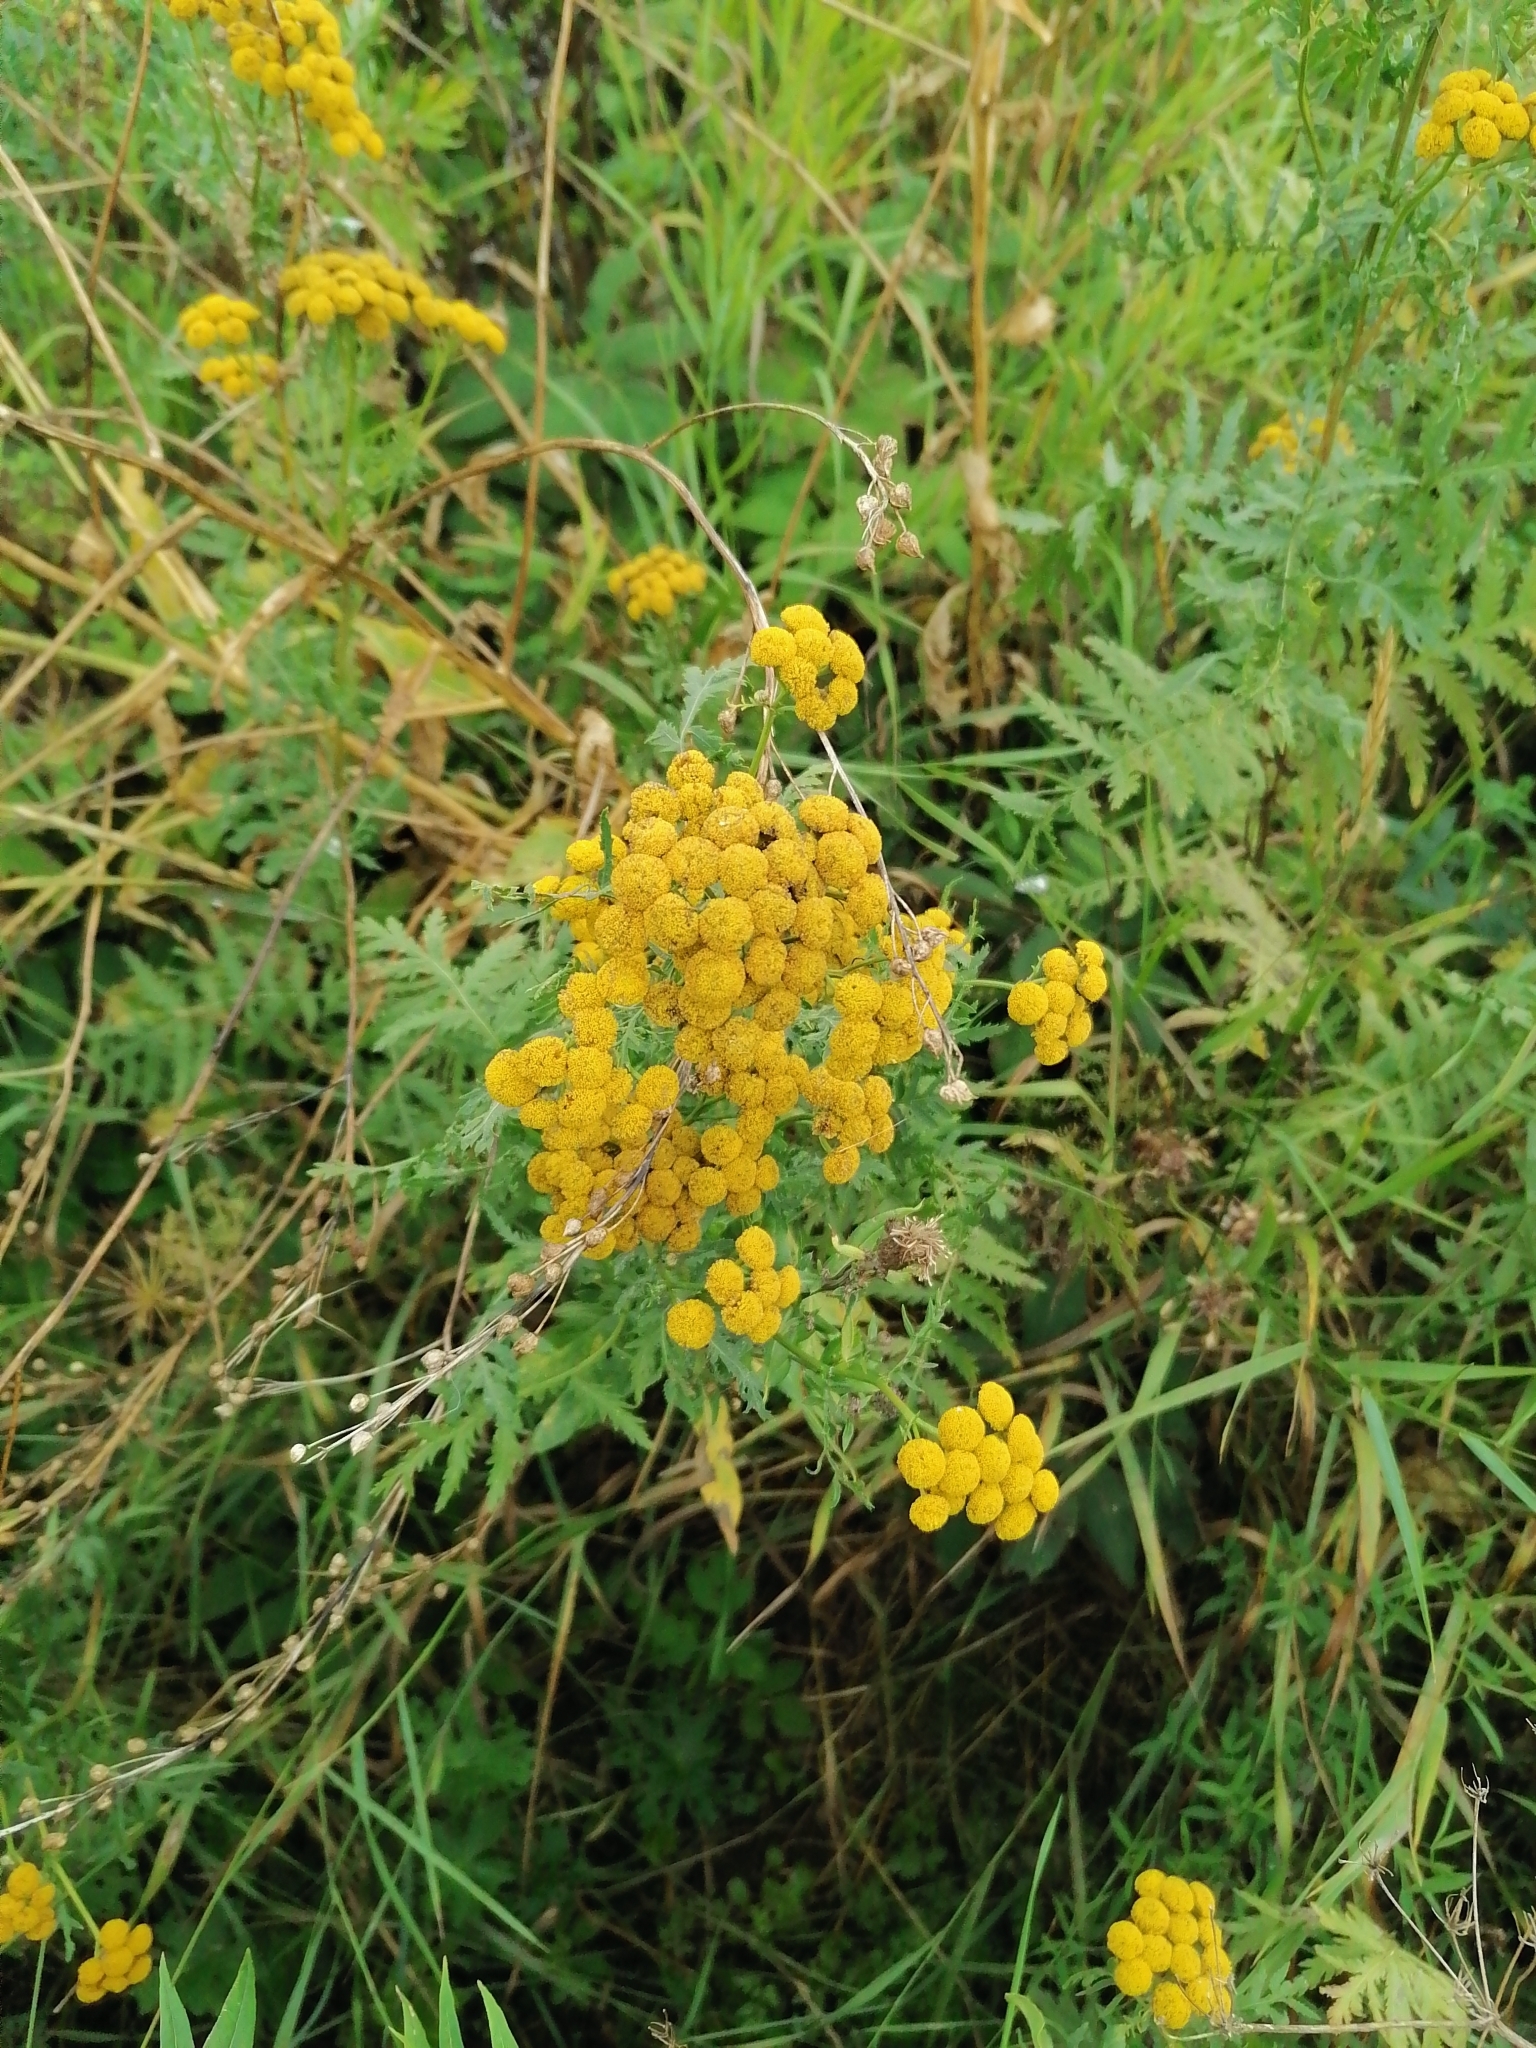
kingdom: Plantae
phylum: Tracheophyta
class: Magnoliopsida
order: Asterales
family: Asteraceae
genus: Tanacetum
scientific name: Tanacetum vulgare
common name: Common tansy
